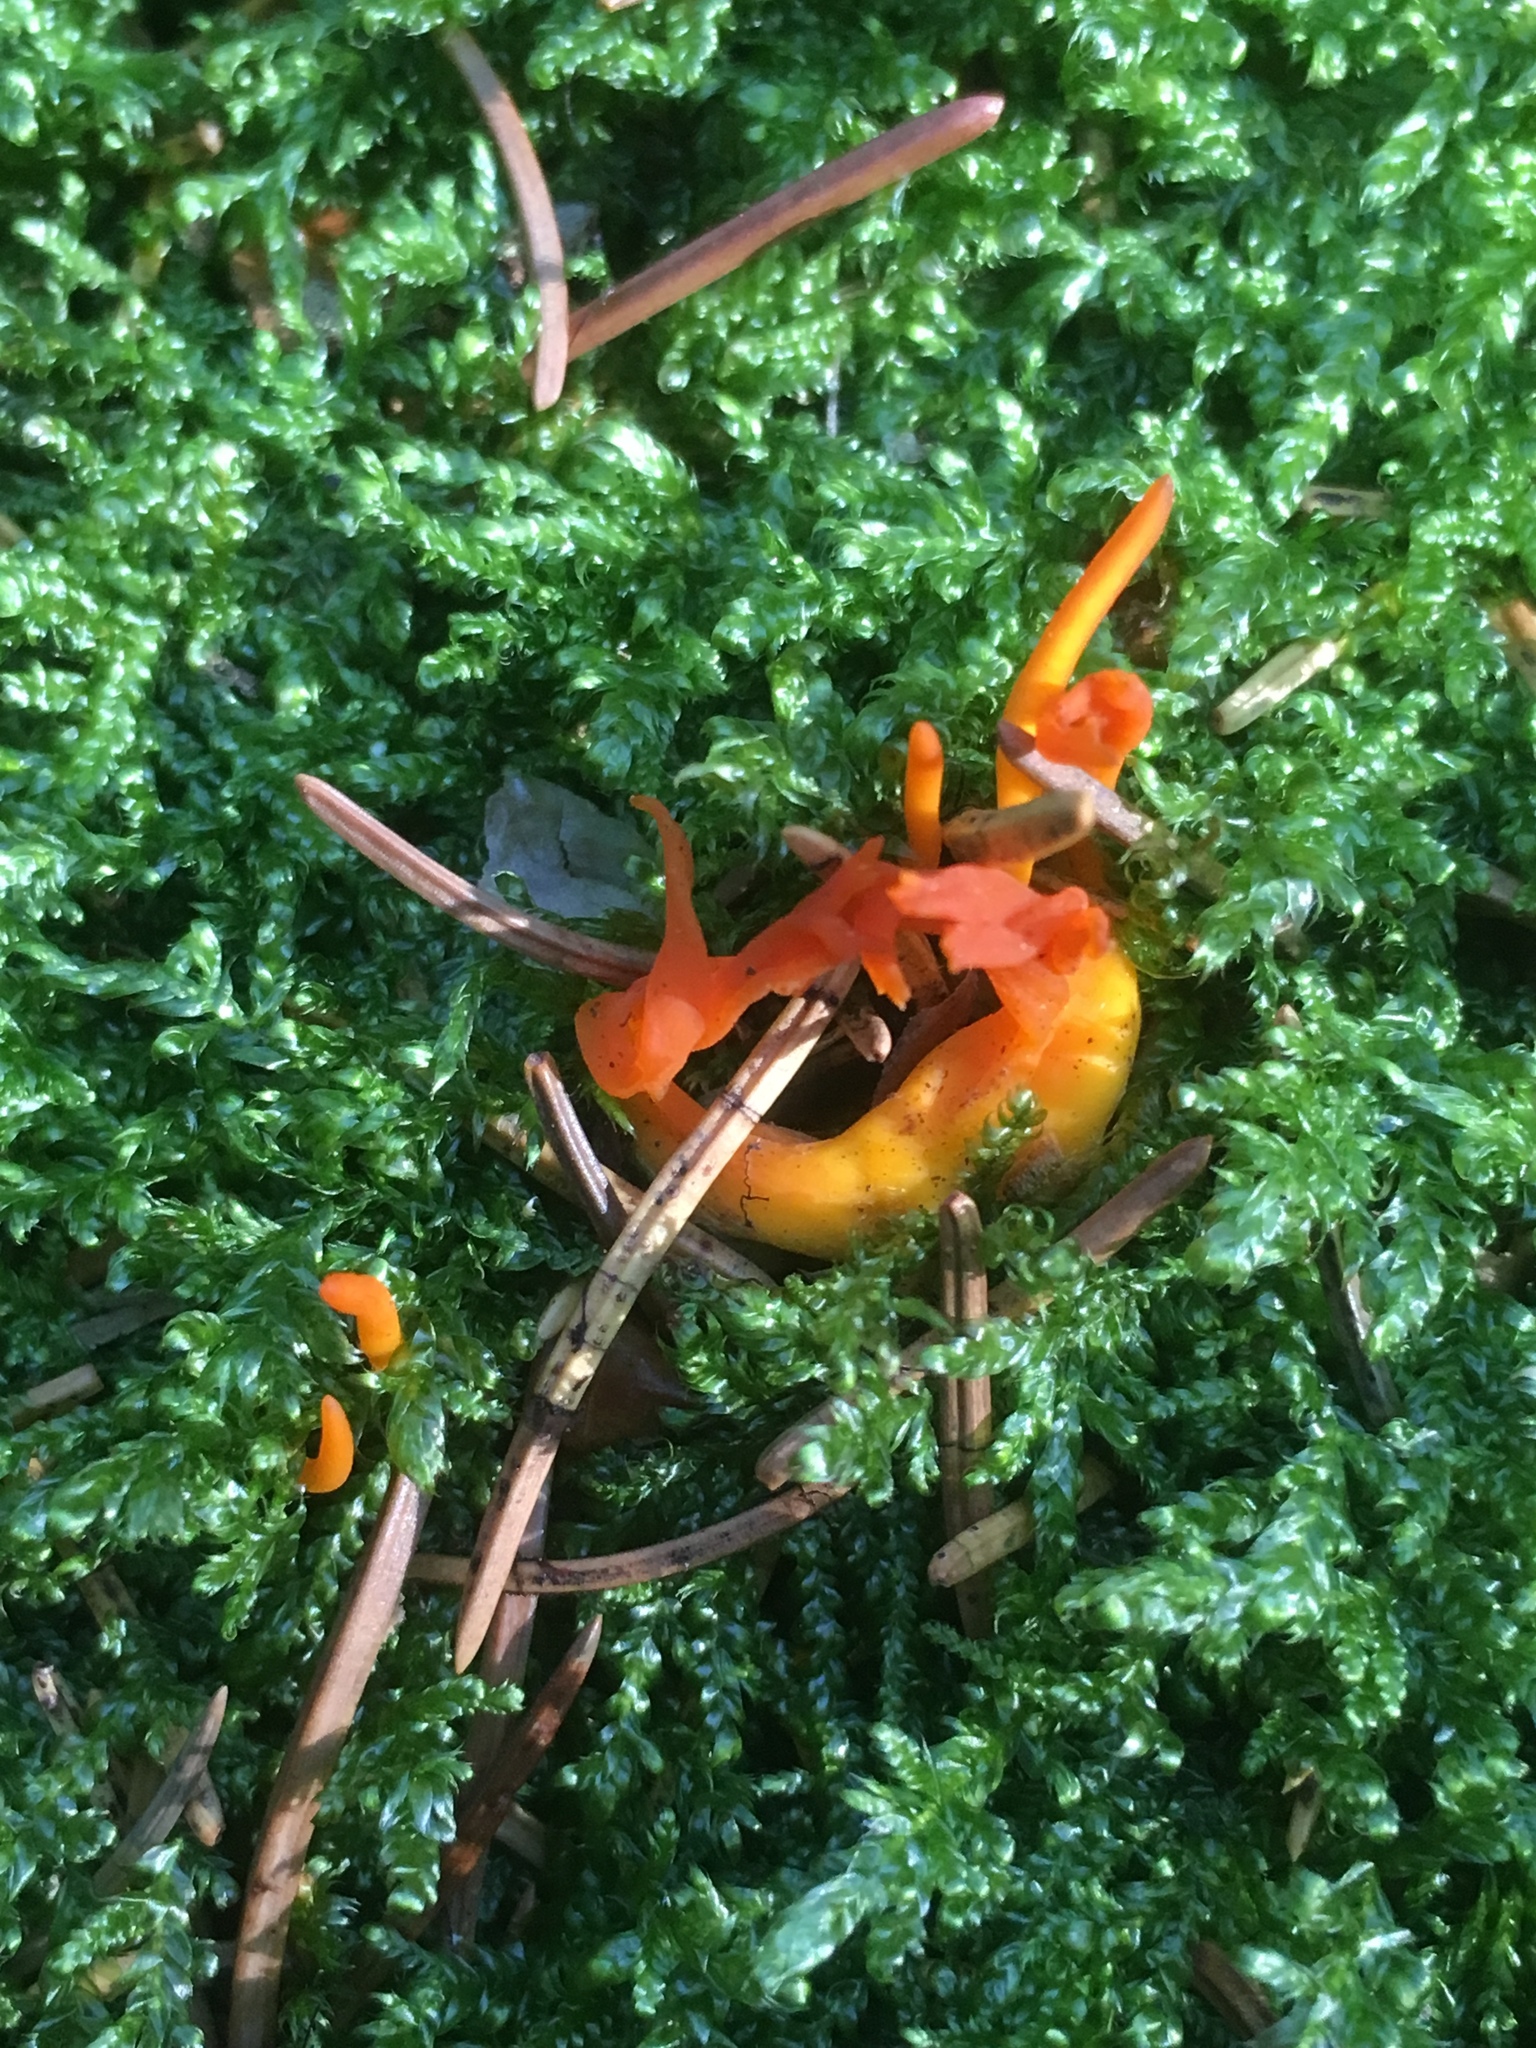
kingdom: Fungi
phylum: Basidiomycota
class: Dacrymycetes
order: Dacrymycetales
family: Dacrymycetaceae
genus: Calocera
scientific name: Calocera viscosa
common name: Yellow stagshorn
